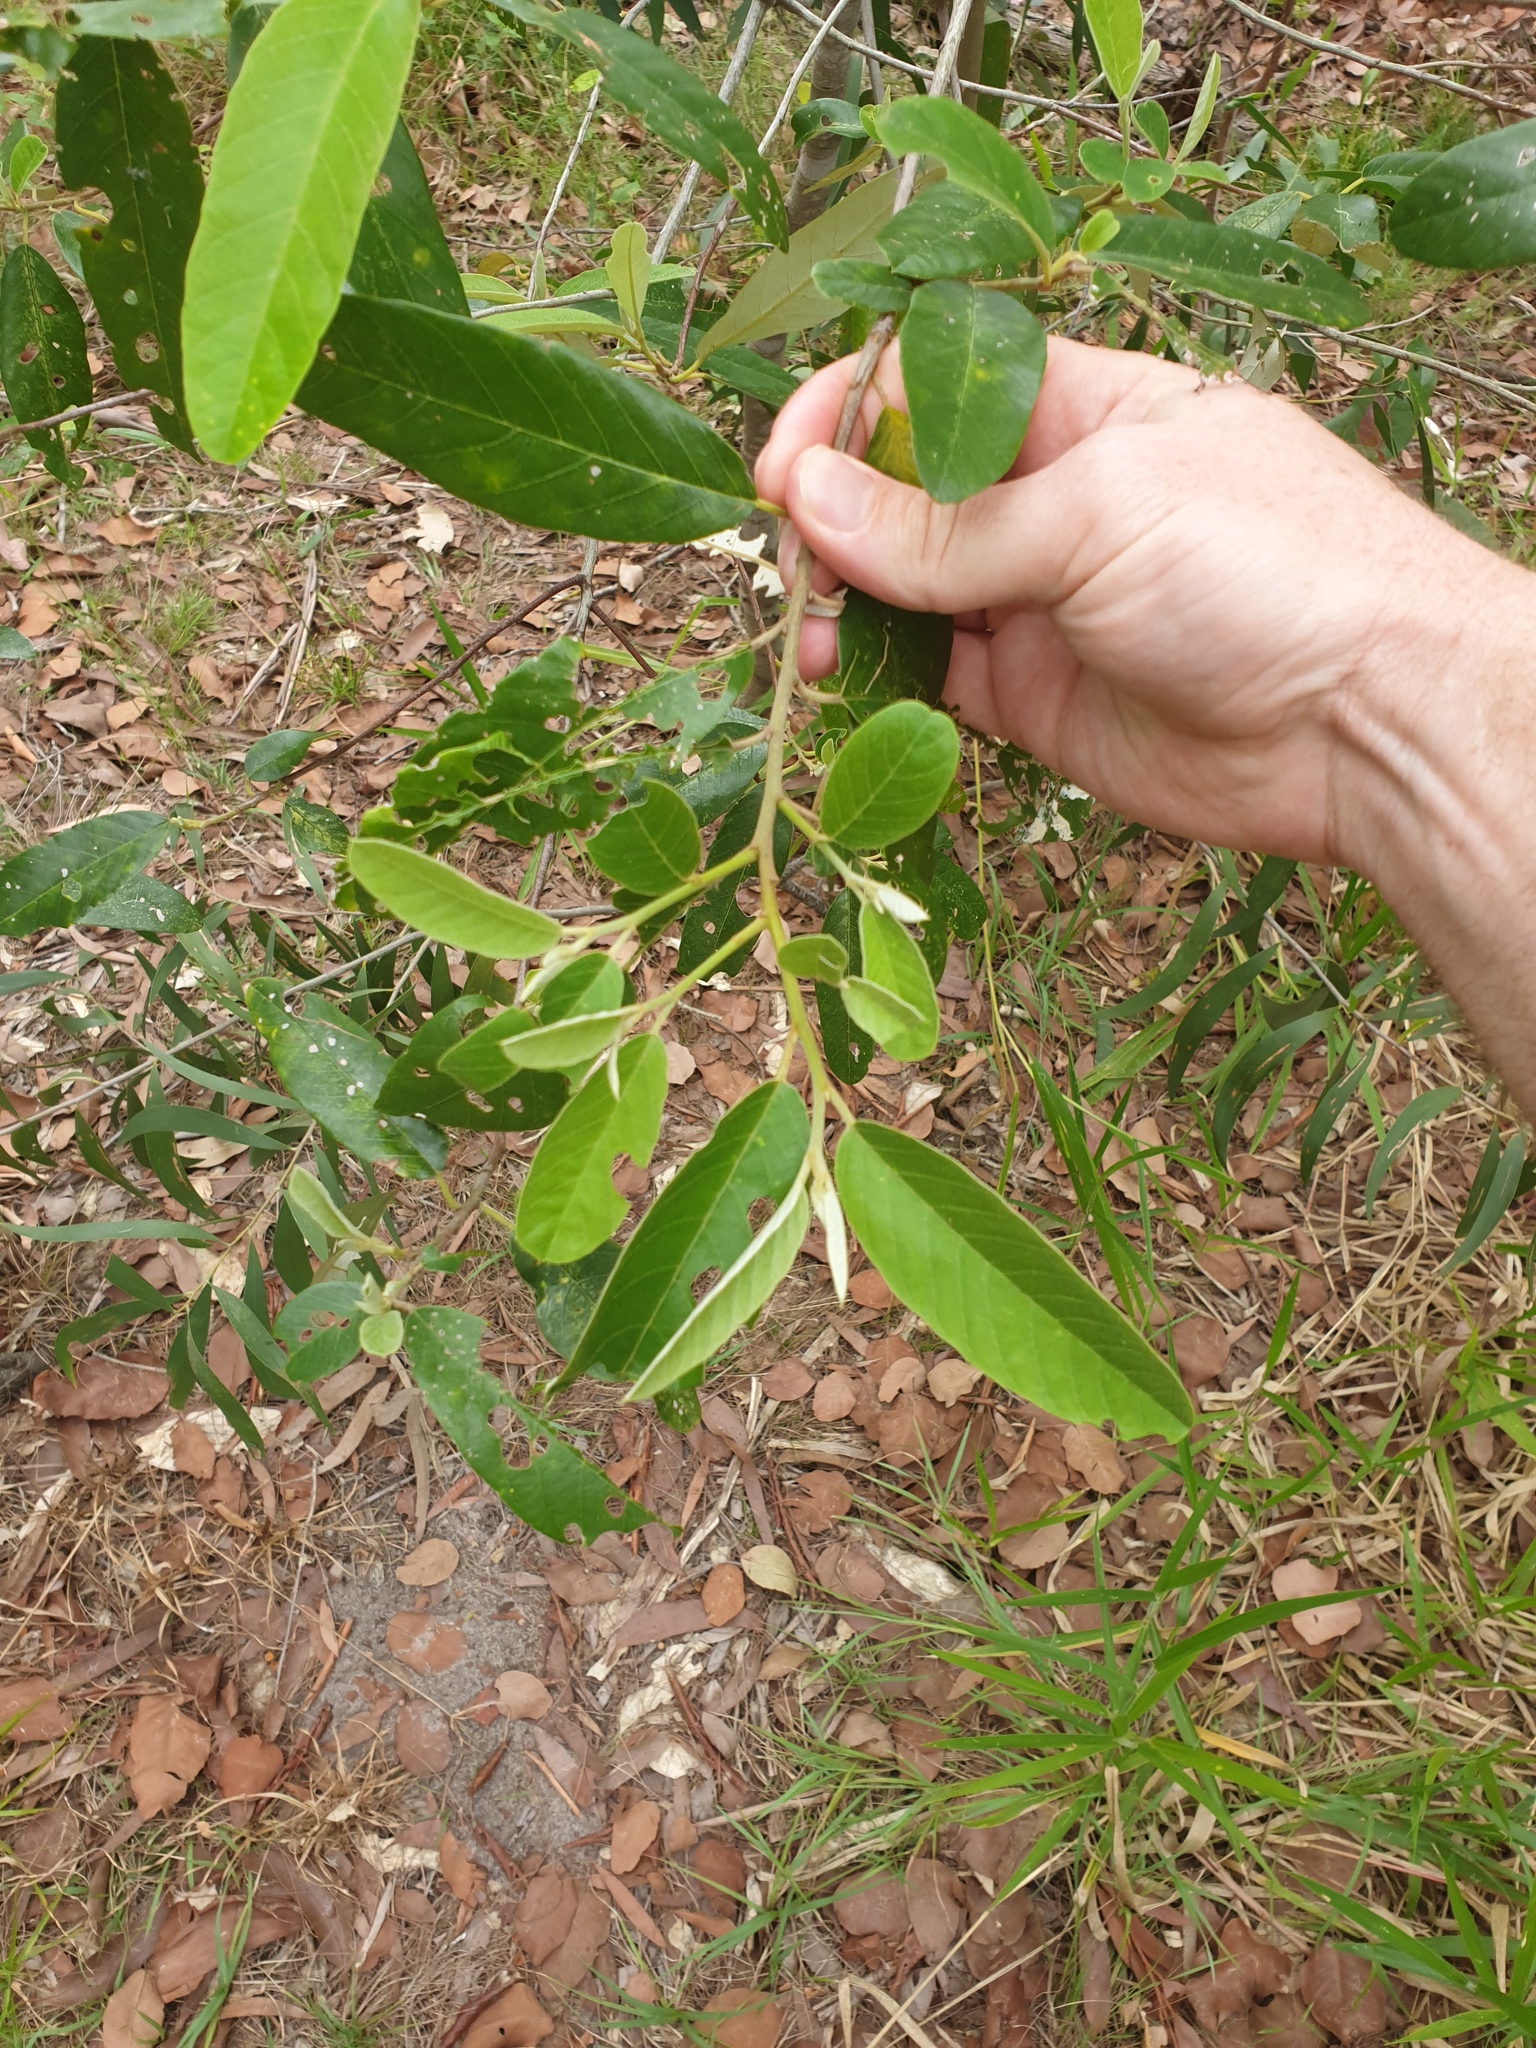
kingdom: Plantae
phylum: Tracheophyta
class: Magnoliopsida
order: Rosales
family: Rhamnaceae
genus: Alphitonia
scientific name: Alphitonia excelsa
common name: Red ash
